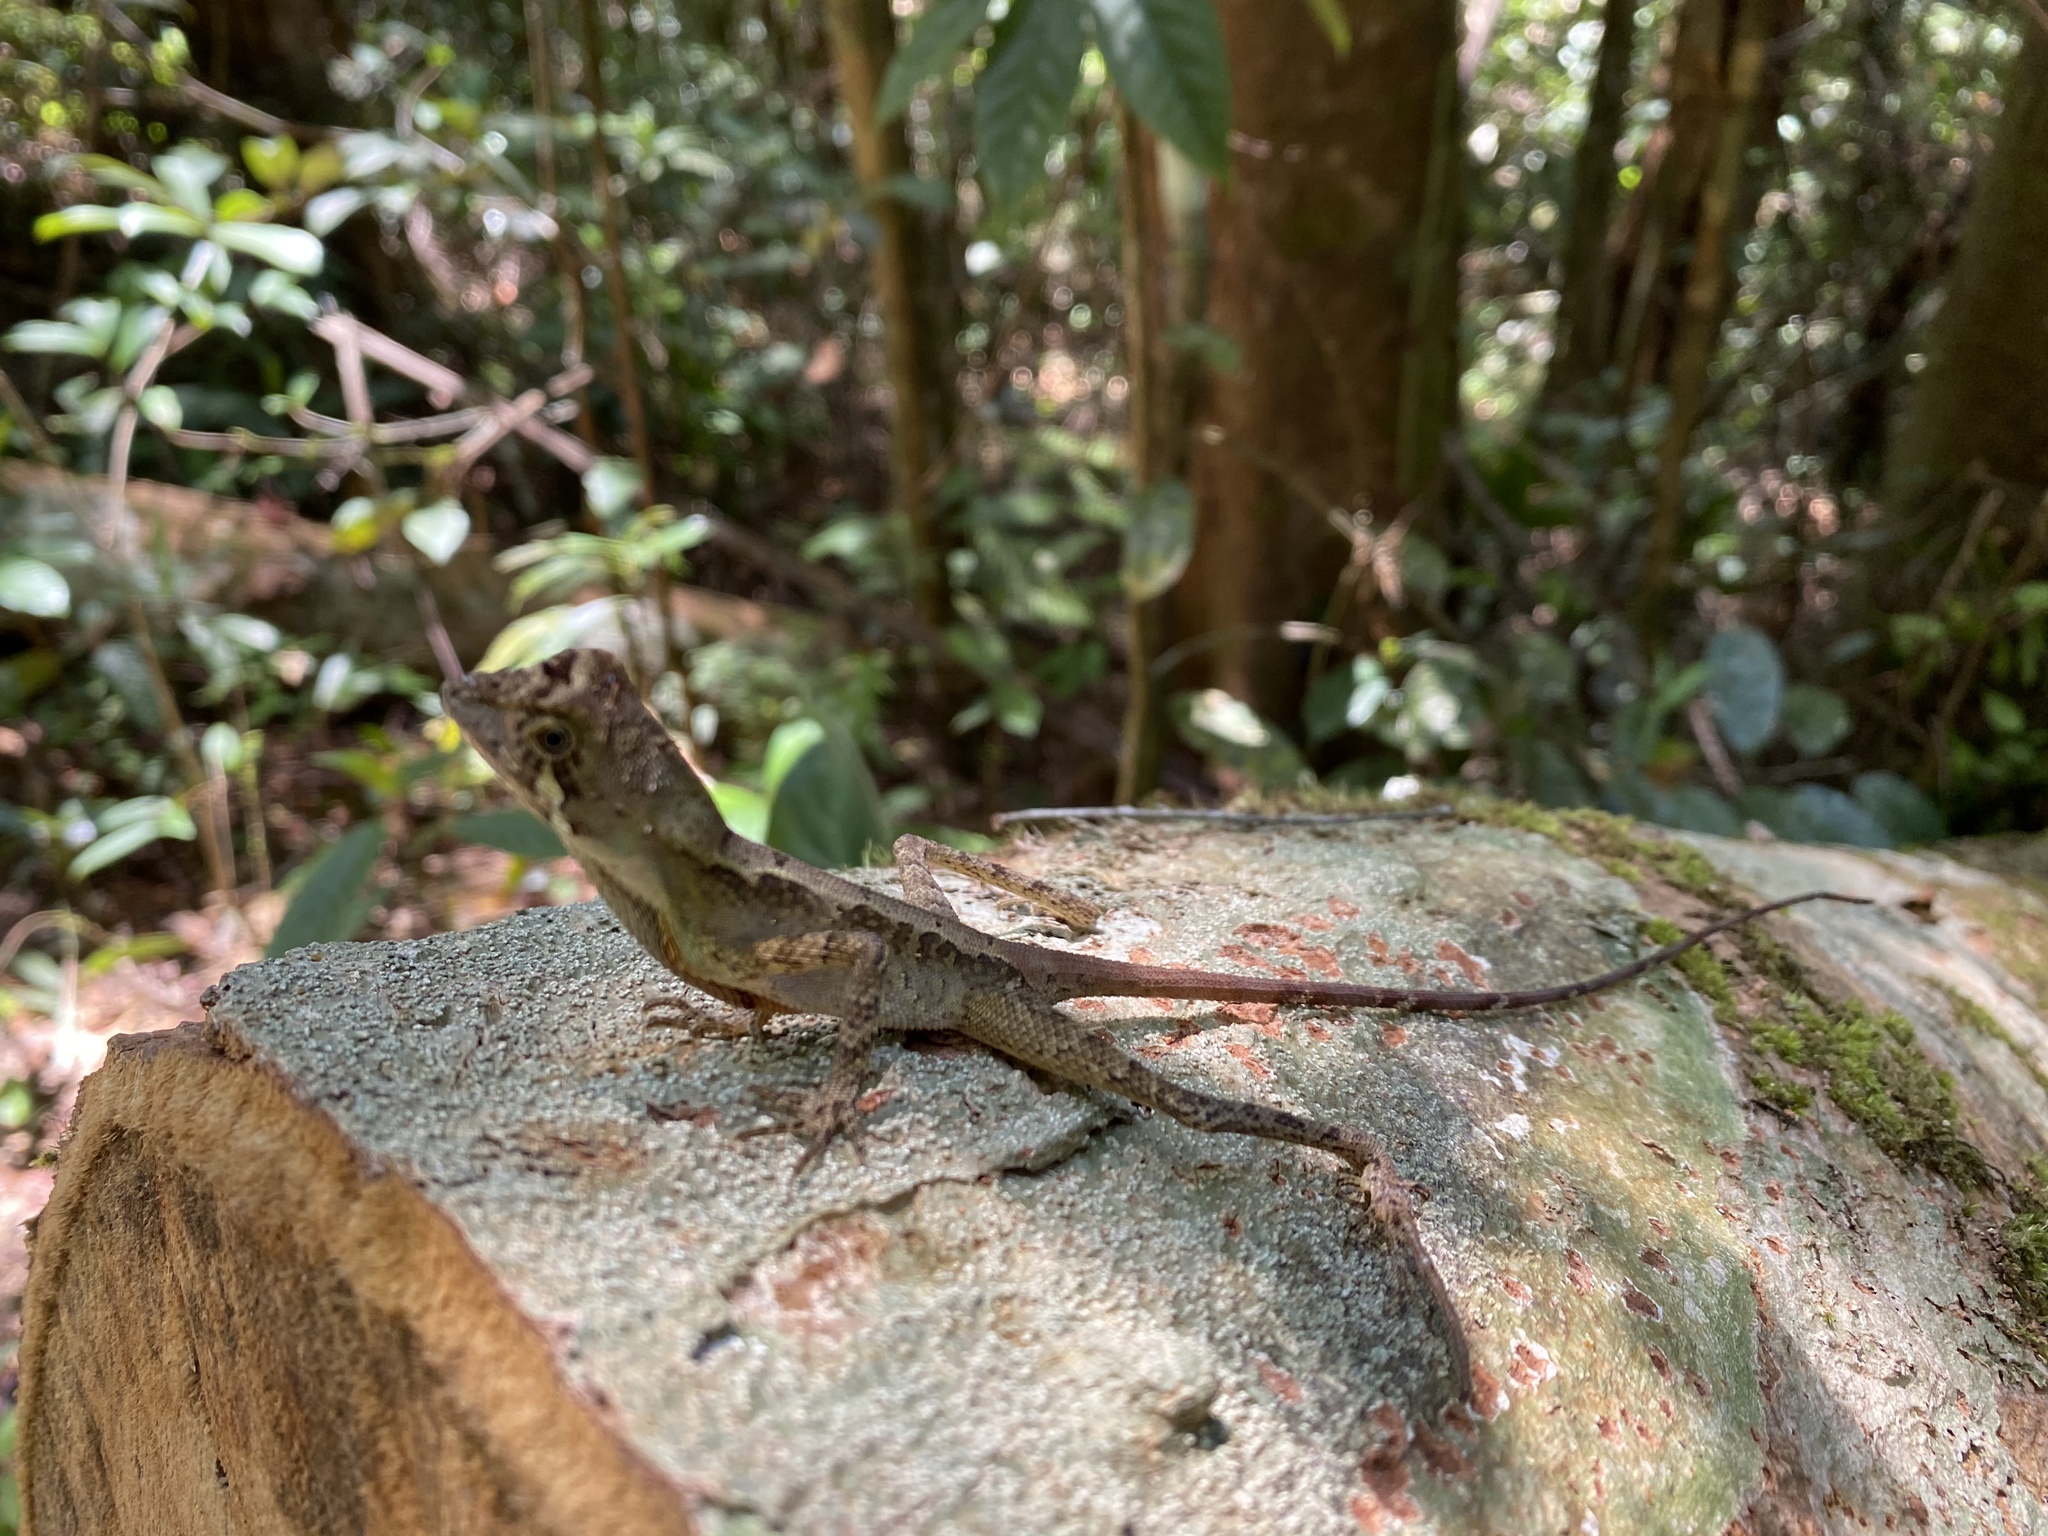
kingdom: Animalia
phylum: Chordata
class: Squamata
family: Agamidae
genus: Otocryptis
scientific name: Otocryptis wiegmanni
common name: Wiegmann's agama
